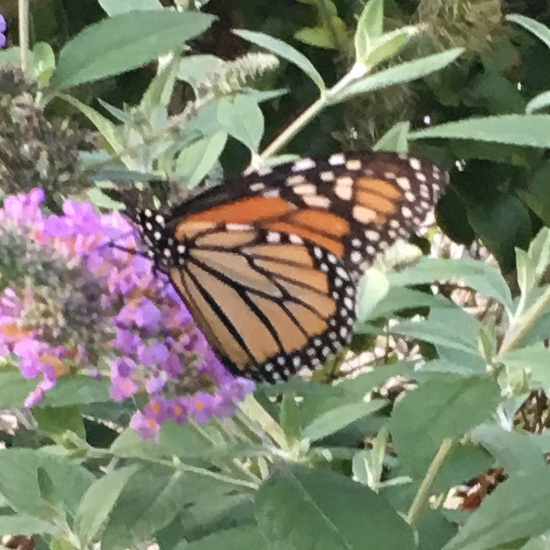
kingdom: Animalia
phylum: Arthropoda
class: Insecta
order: Lepidoptera
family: Nymphalidae
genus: Danaus
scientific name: Danaus plexippus
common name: Monarch
